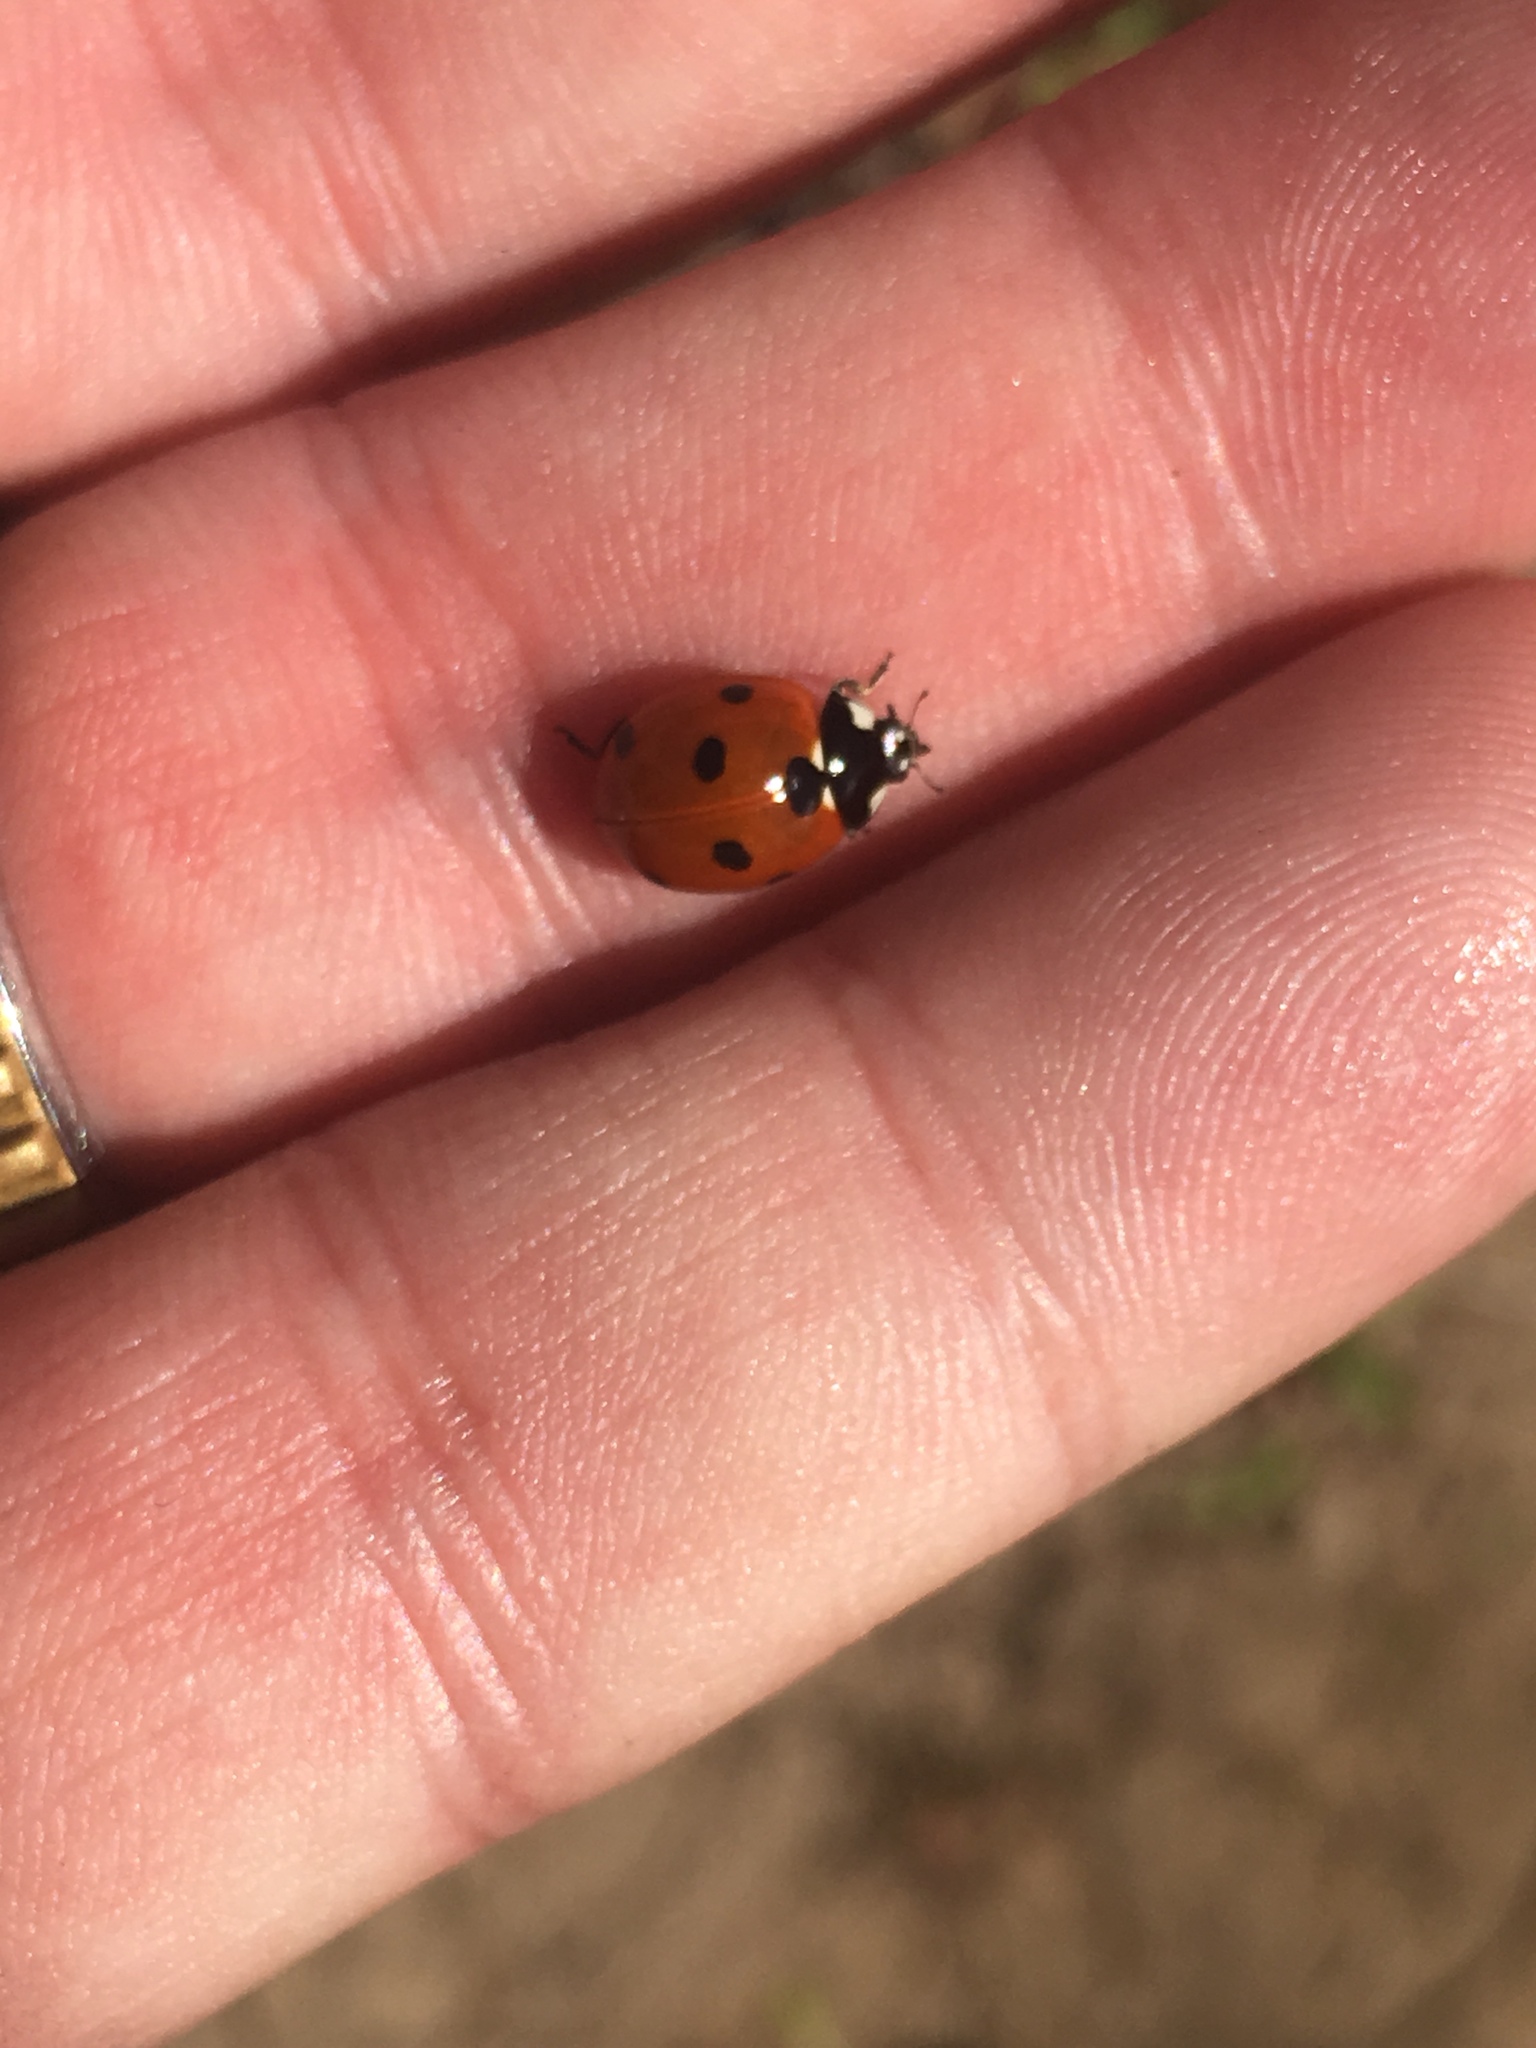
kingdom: Animalia
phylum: Arthropoda
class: Insecta
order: Coleoptera
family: Coccinellidae
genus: Coccinella
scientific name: Coccinella septempunctata
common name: Sevenspotted lady beetle
